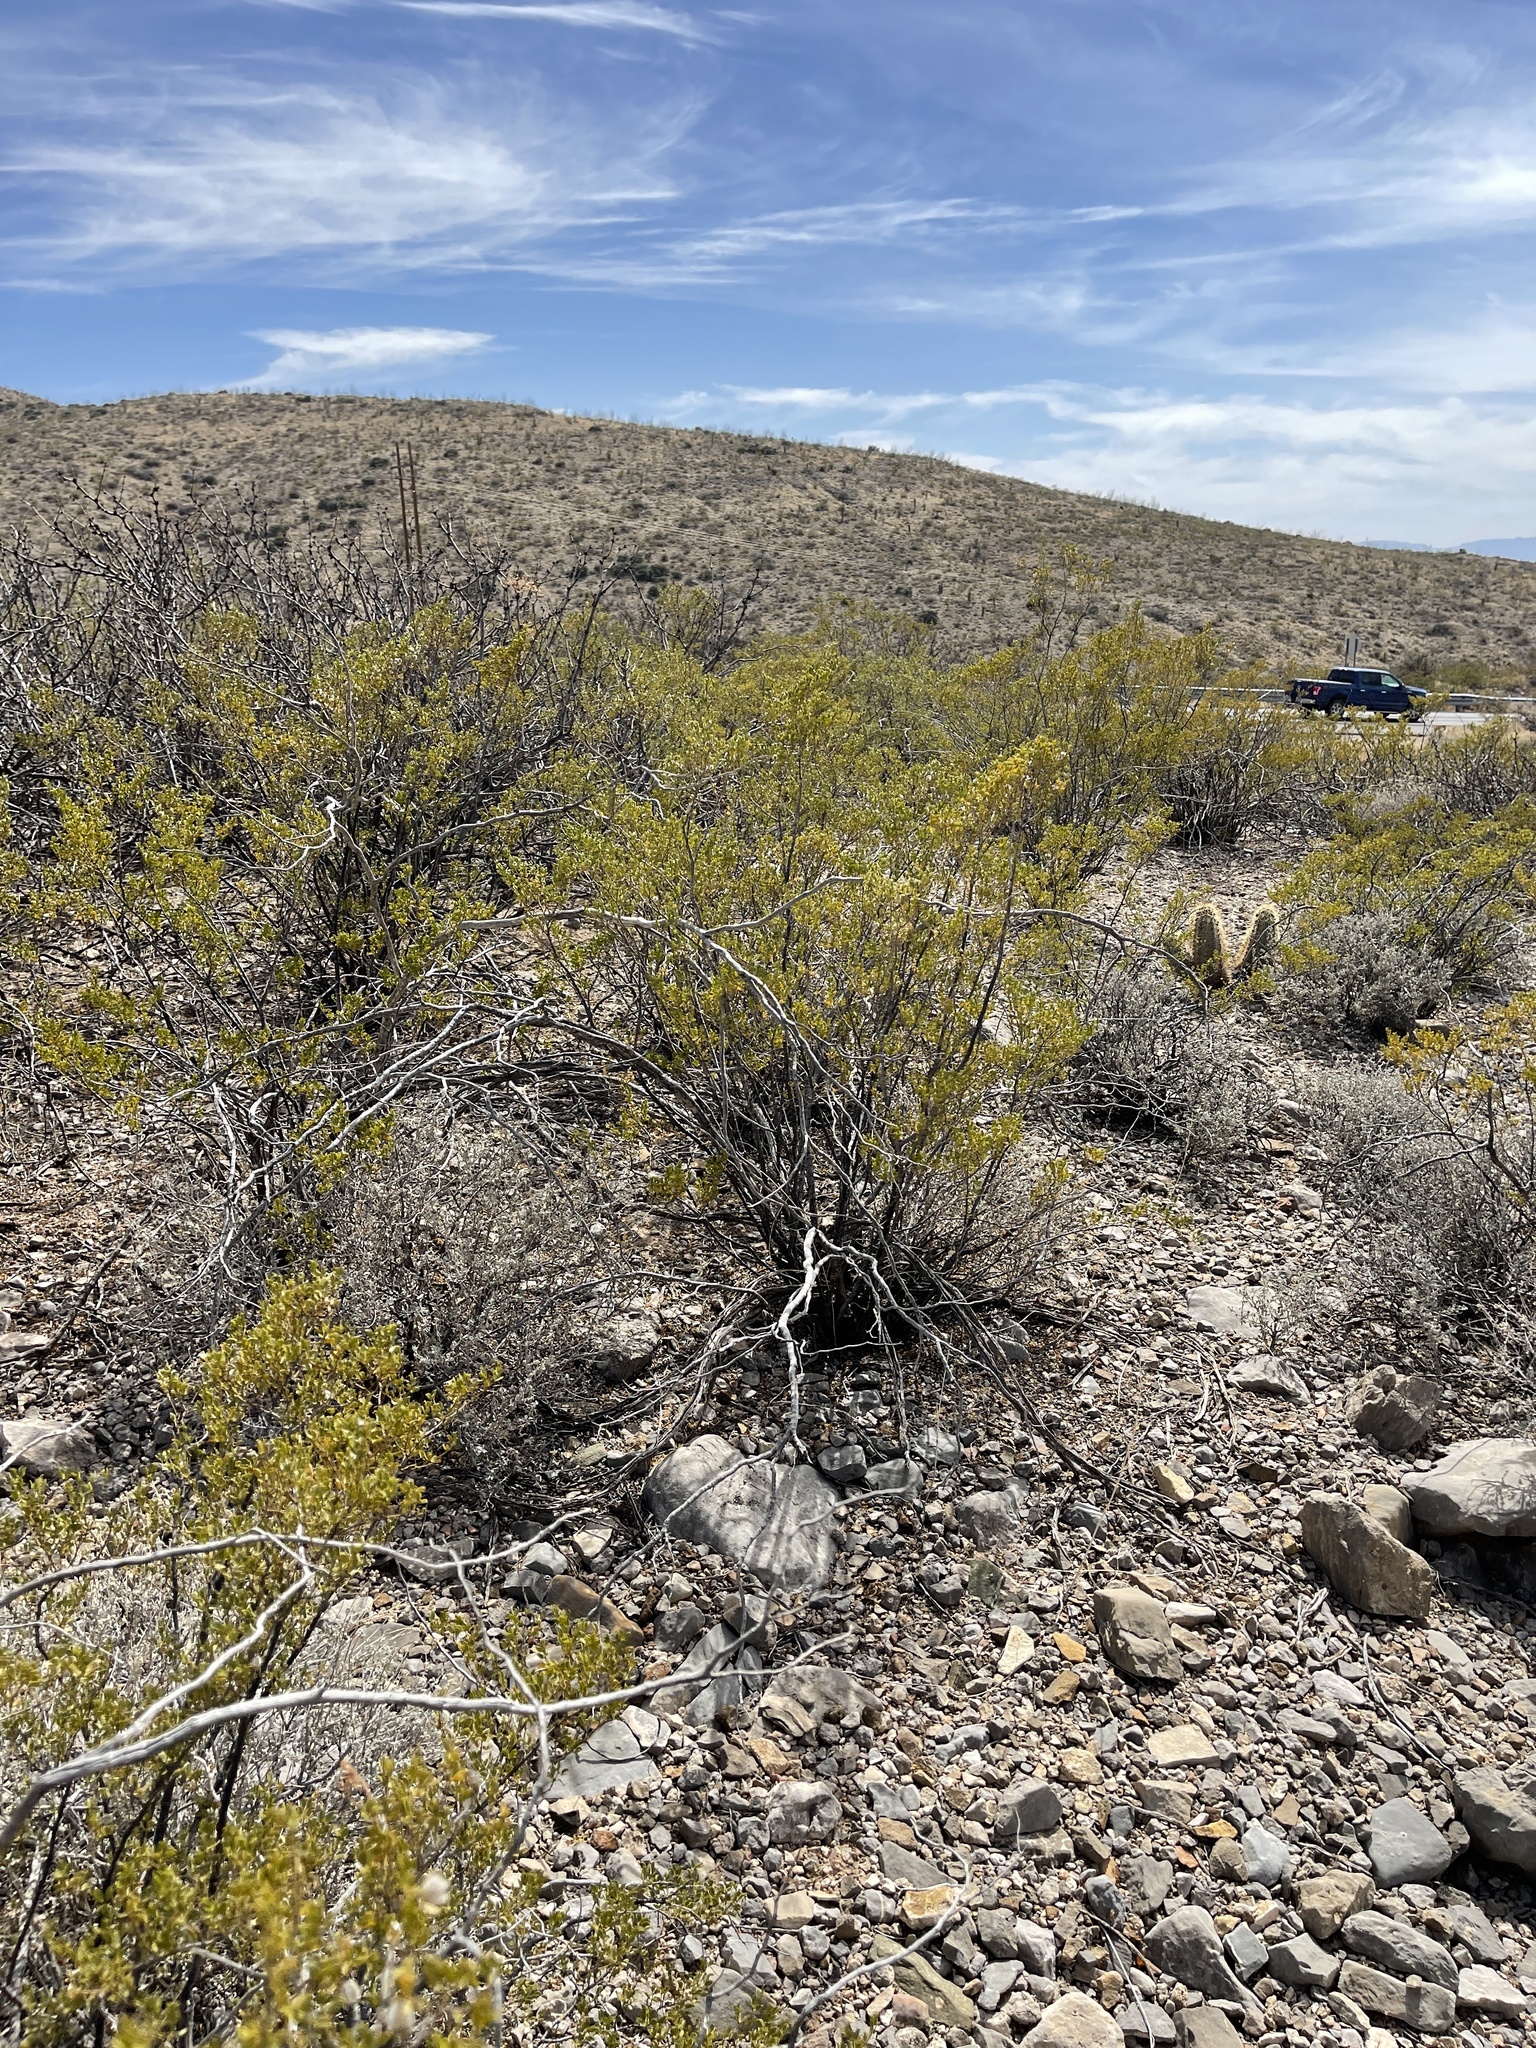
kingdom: Plantae
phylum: Tracheophyta
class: Magnoliopsida
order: Zygophyllales
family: Zygophyllaceae
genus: Larrea
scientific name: Larrea tridentata
